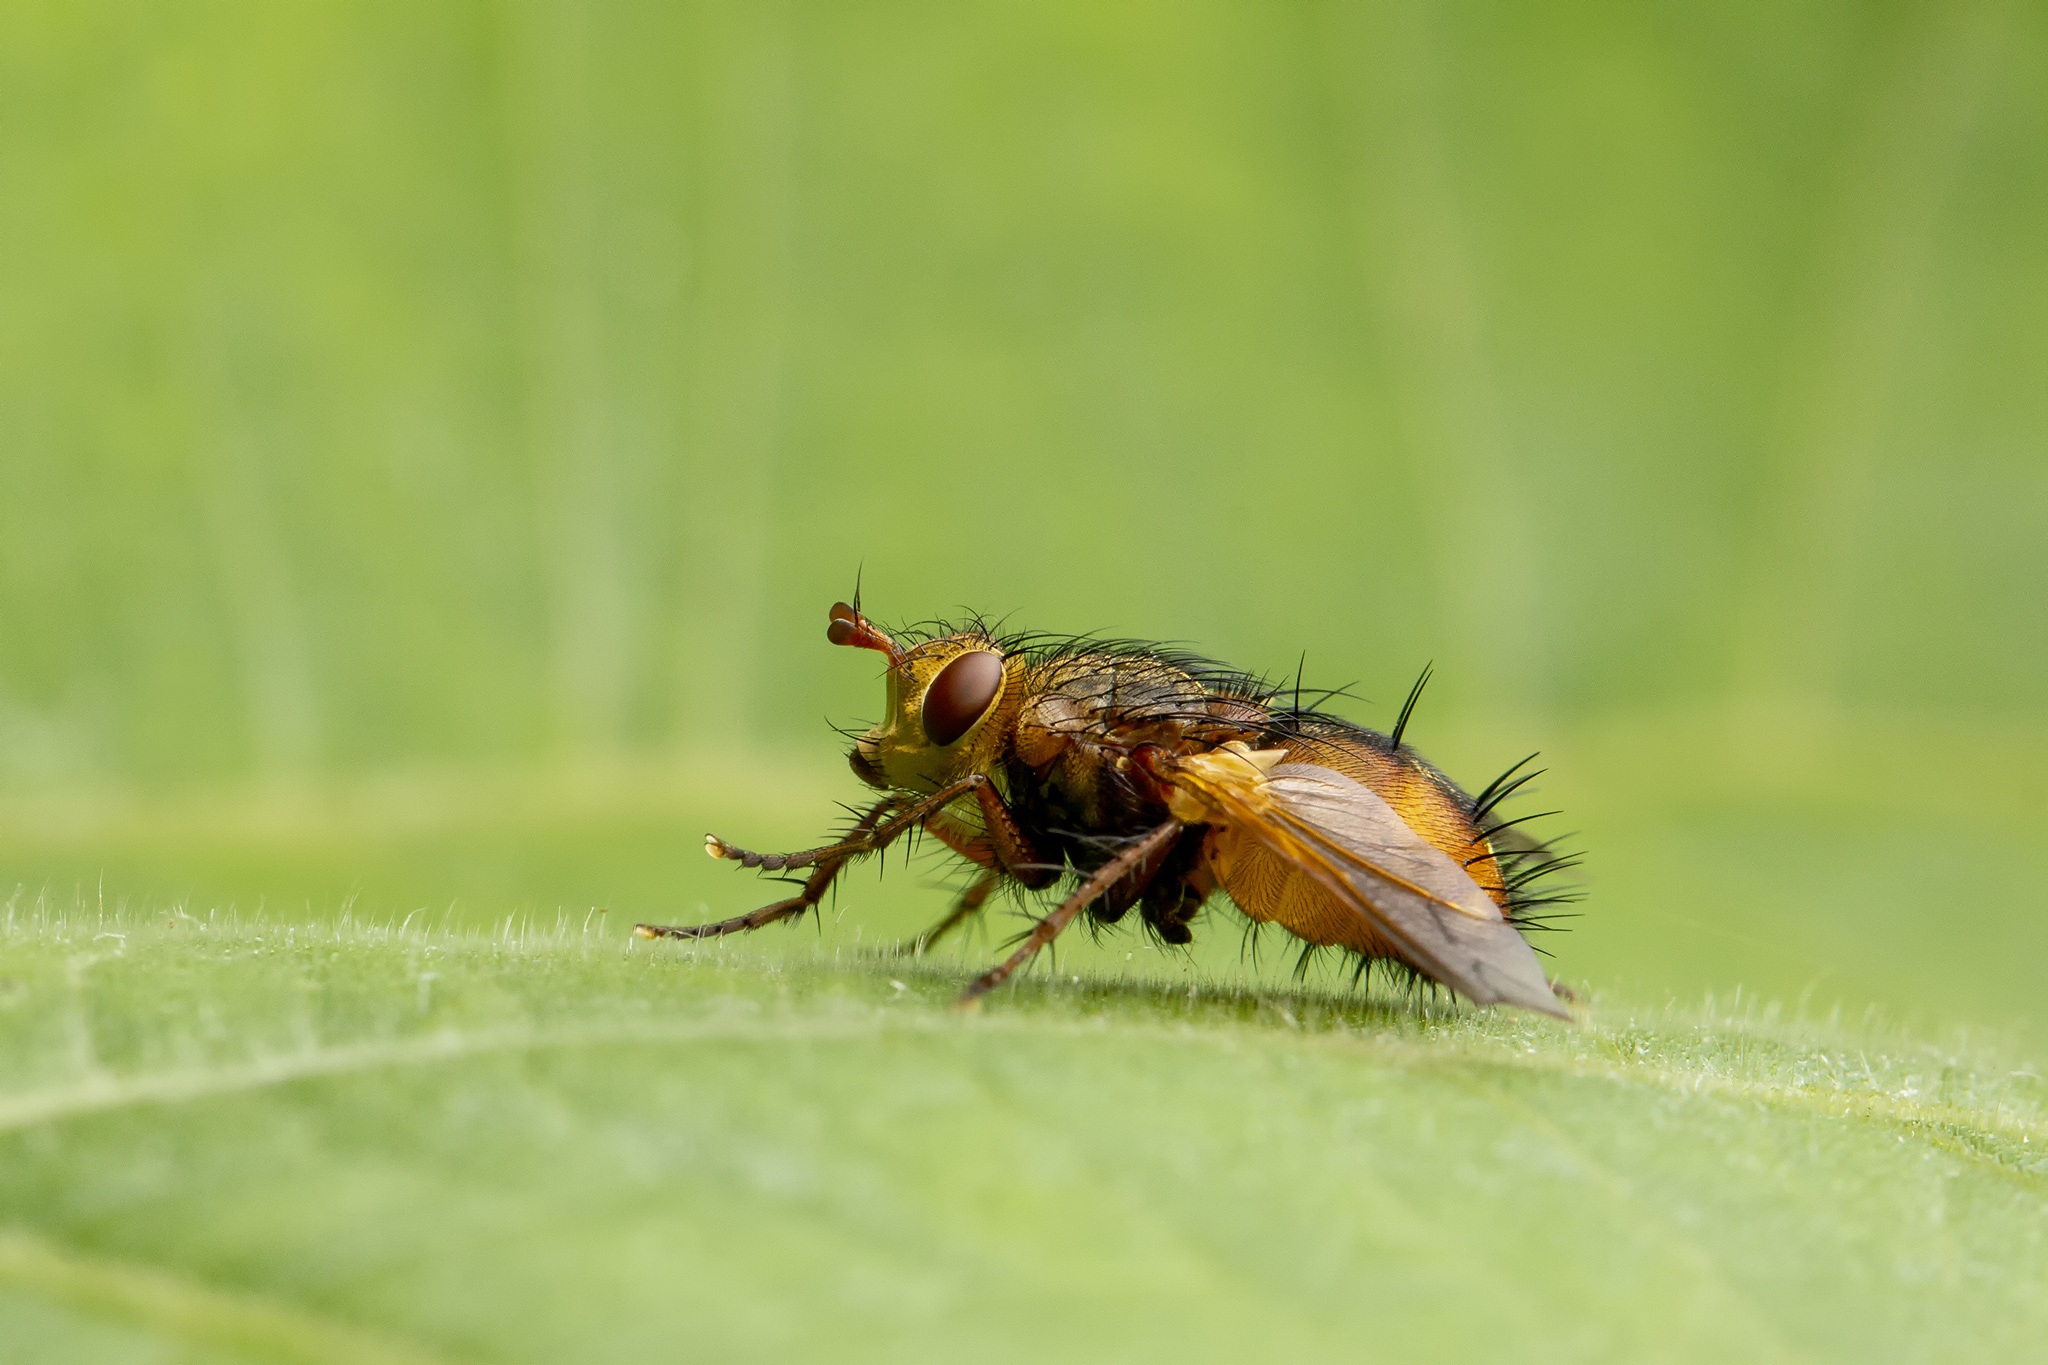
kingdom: Animalia
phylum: Arthropoda
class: Insecta
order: Diptera
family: Tachinidae
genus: Tachina
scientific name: Tachina fera
